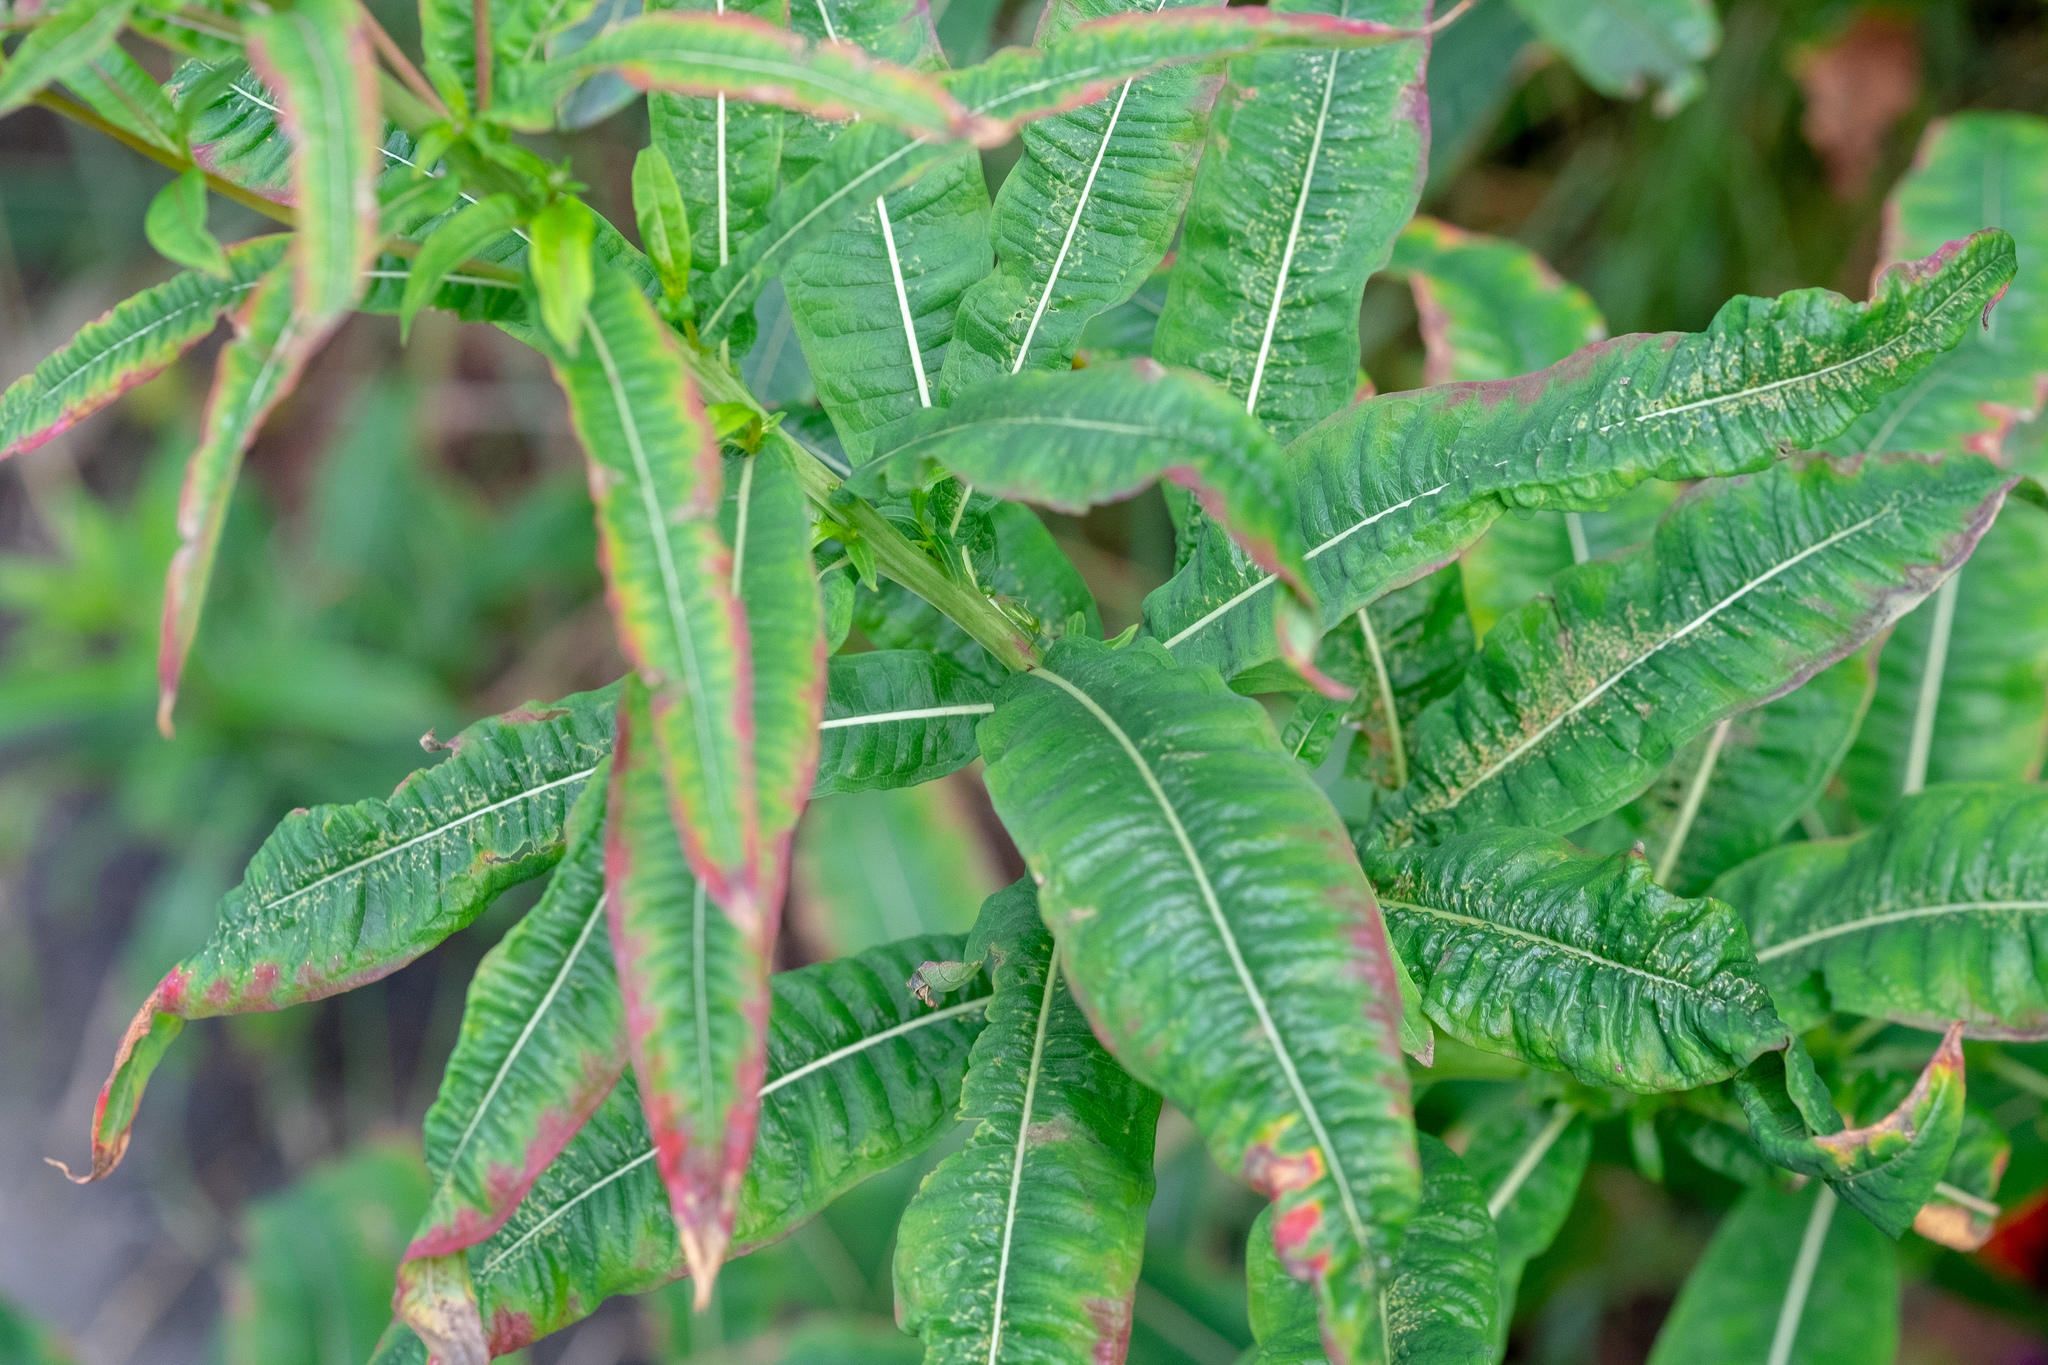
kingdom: Plantae
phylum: Tracheophyta
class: Magnoliopsida
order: Myrtales
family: Onagraceae
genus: Chamaenerion
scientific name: Chamaenerion angustifolium
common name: Fireweed
